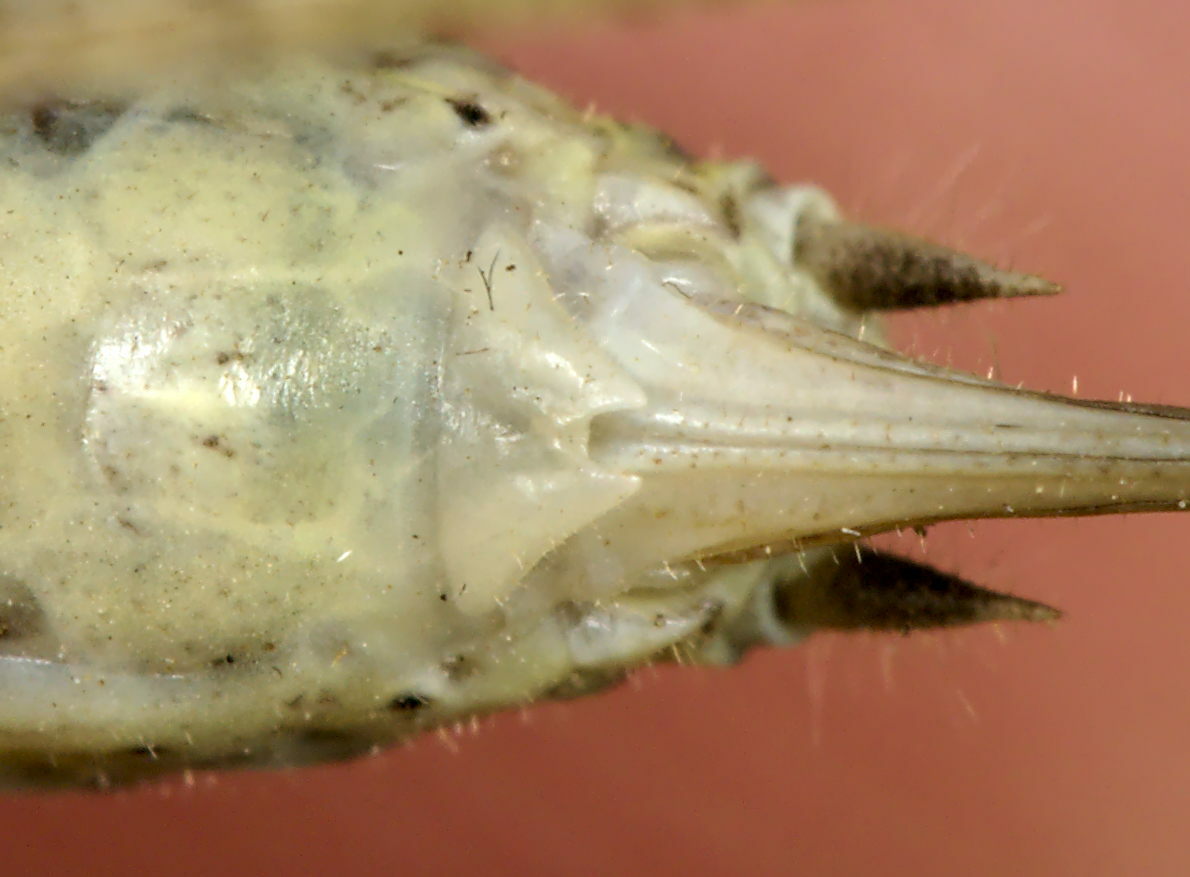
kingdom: Animalia
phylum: Arthropoda
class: Insecta
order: Orthoptera
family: Tettigoniidae
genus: Yersinella
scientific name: Yersinella raymondii
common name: Raymond's bush-cricket
